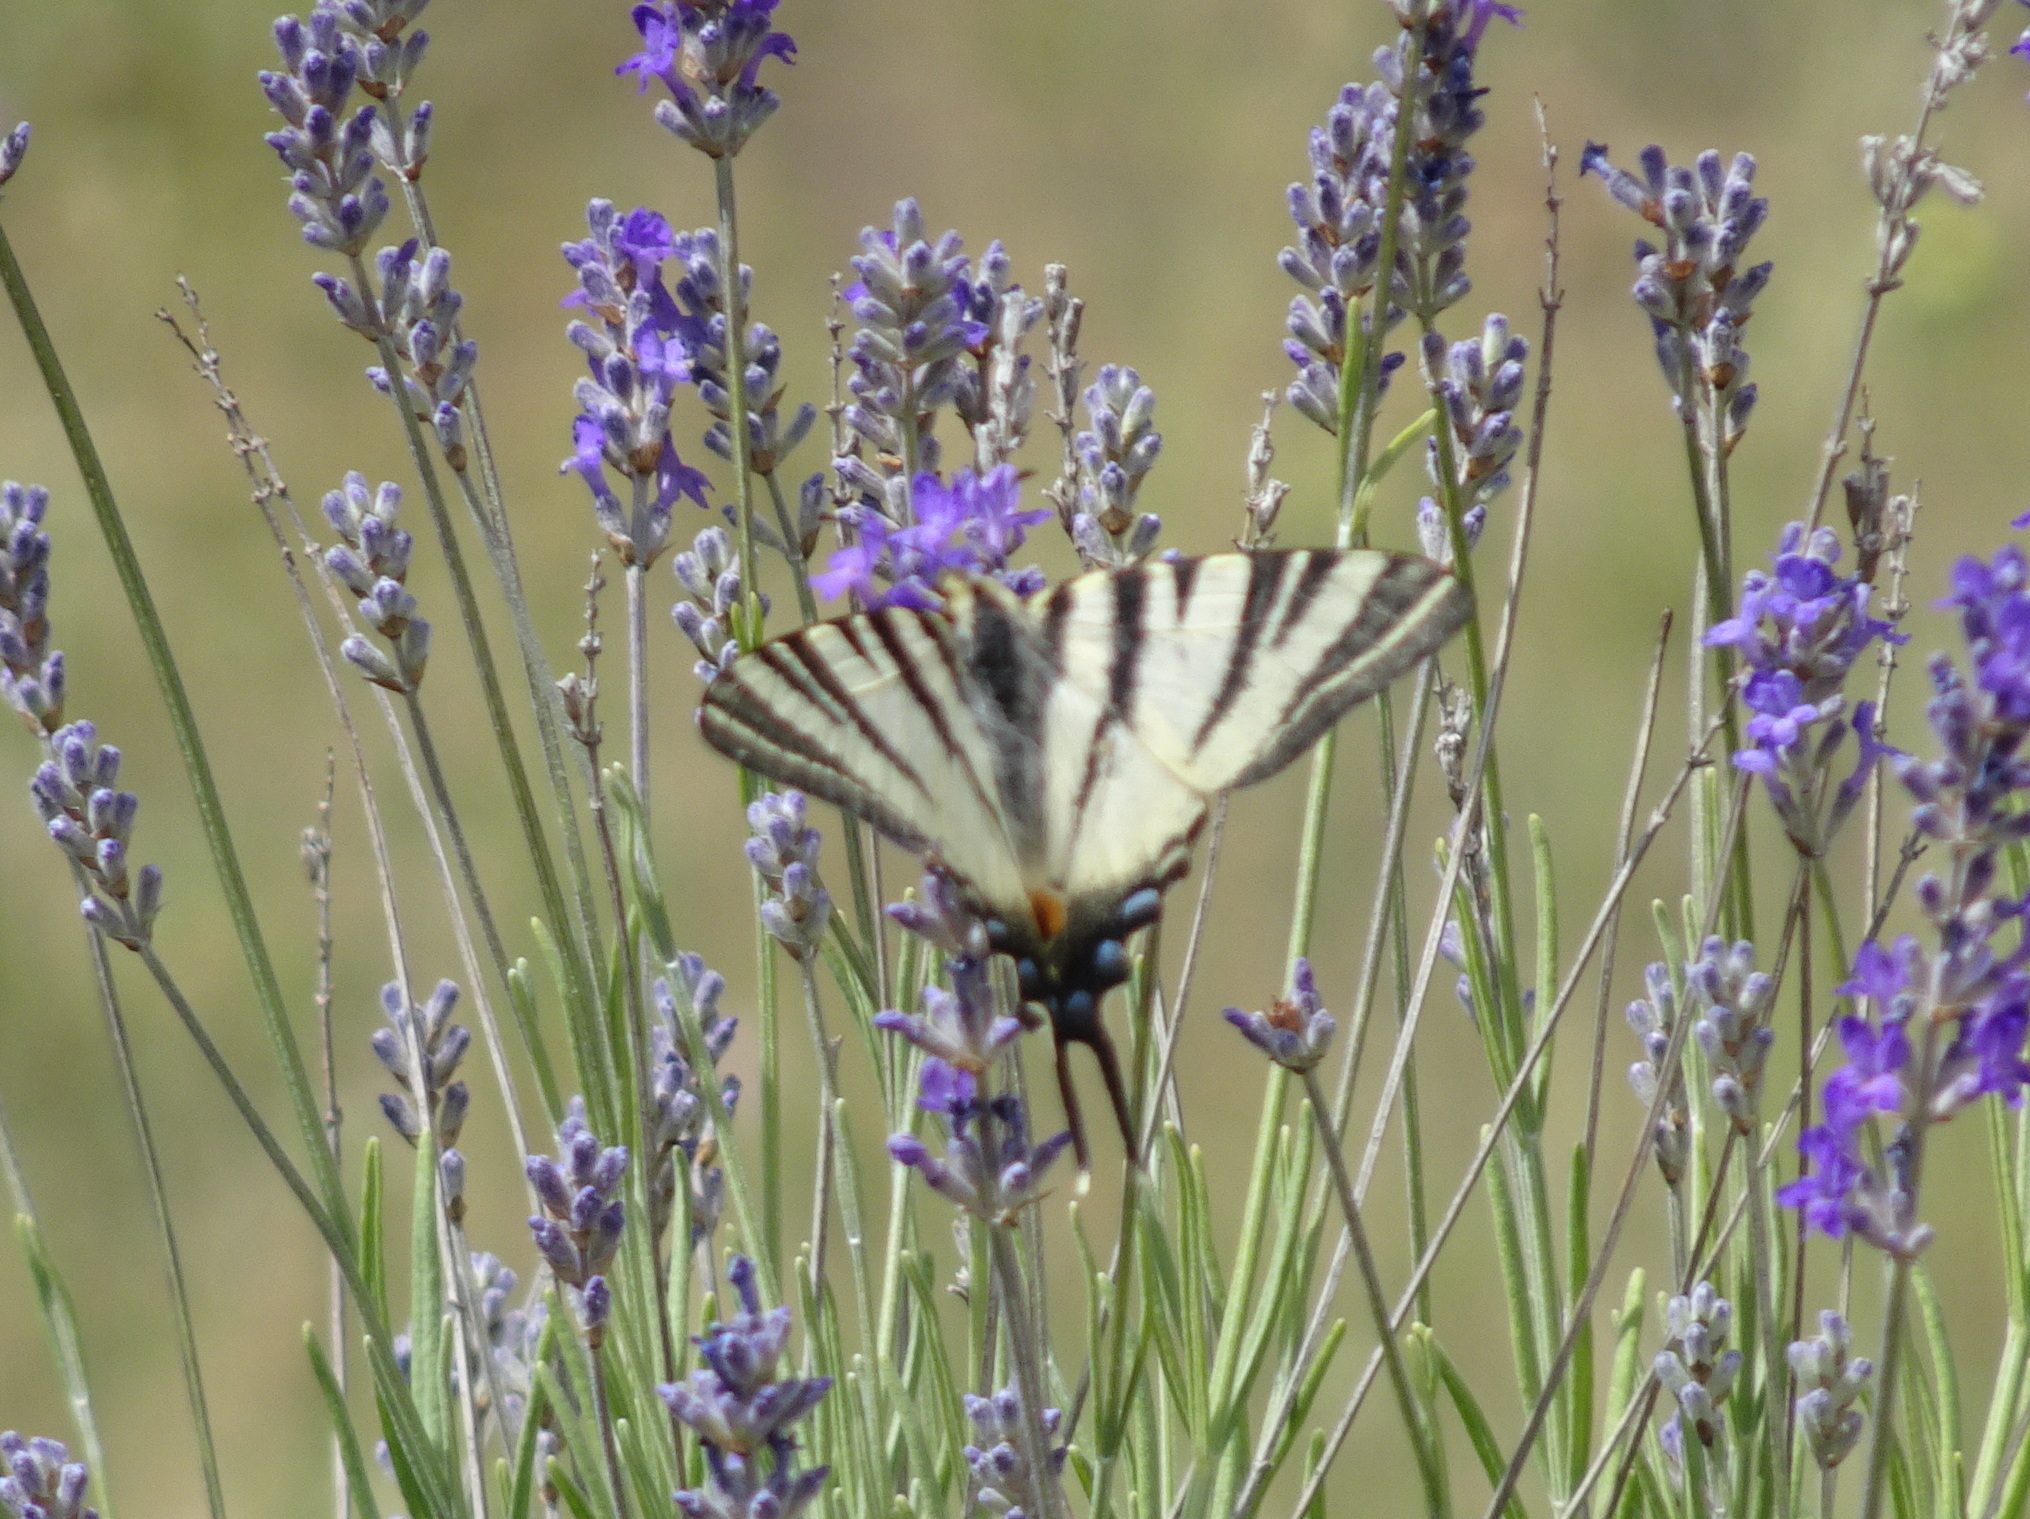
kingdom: Animalia
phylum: Arthropoda
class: Insecta
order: Lepidoptera
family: Papilionidae
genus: Iphiclides
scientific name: Iphiclides podalirius
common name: Scarce swallowtail
